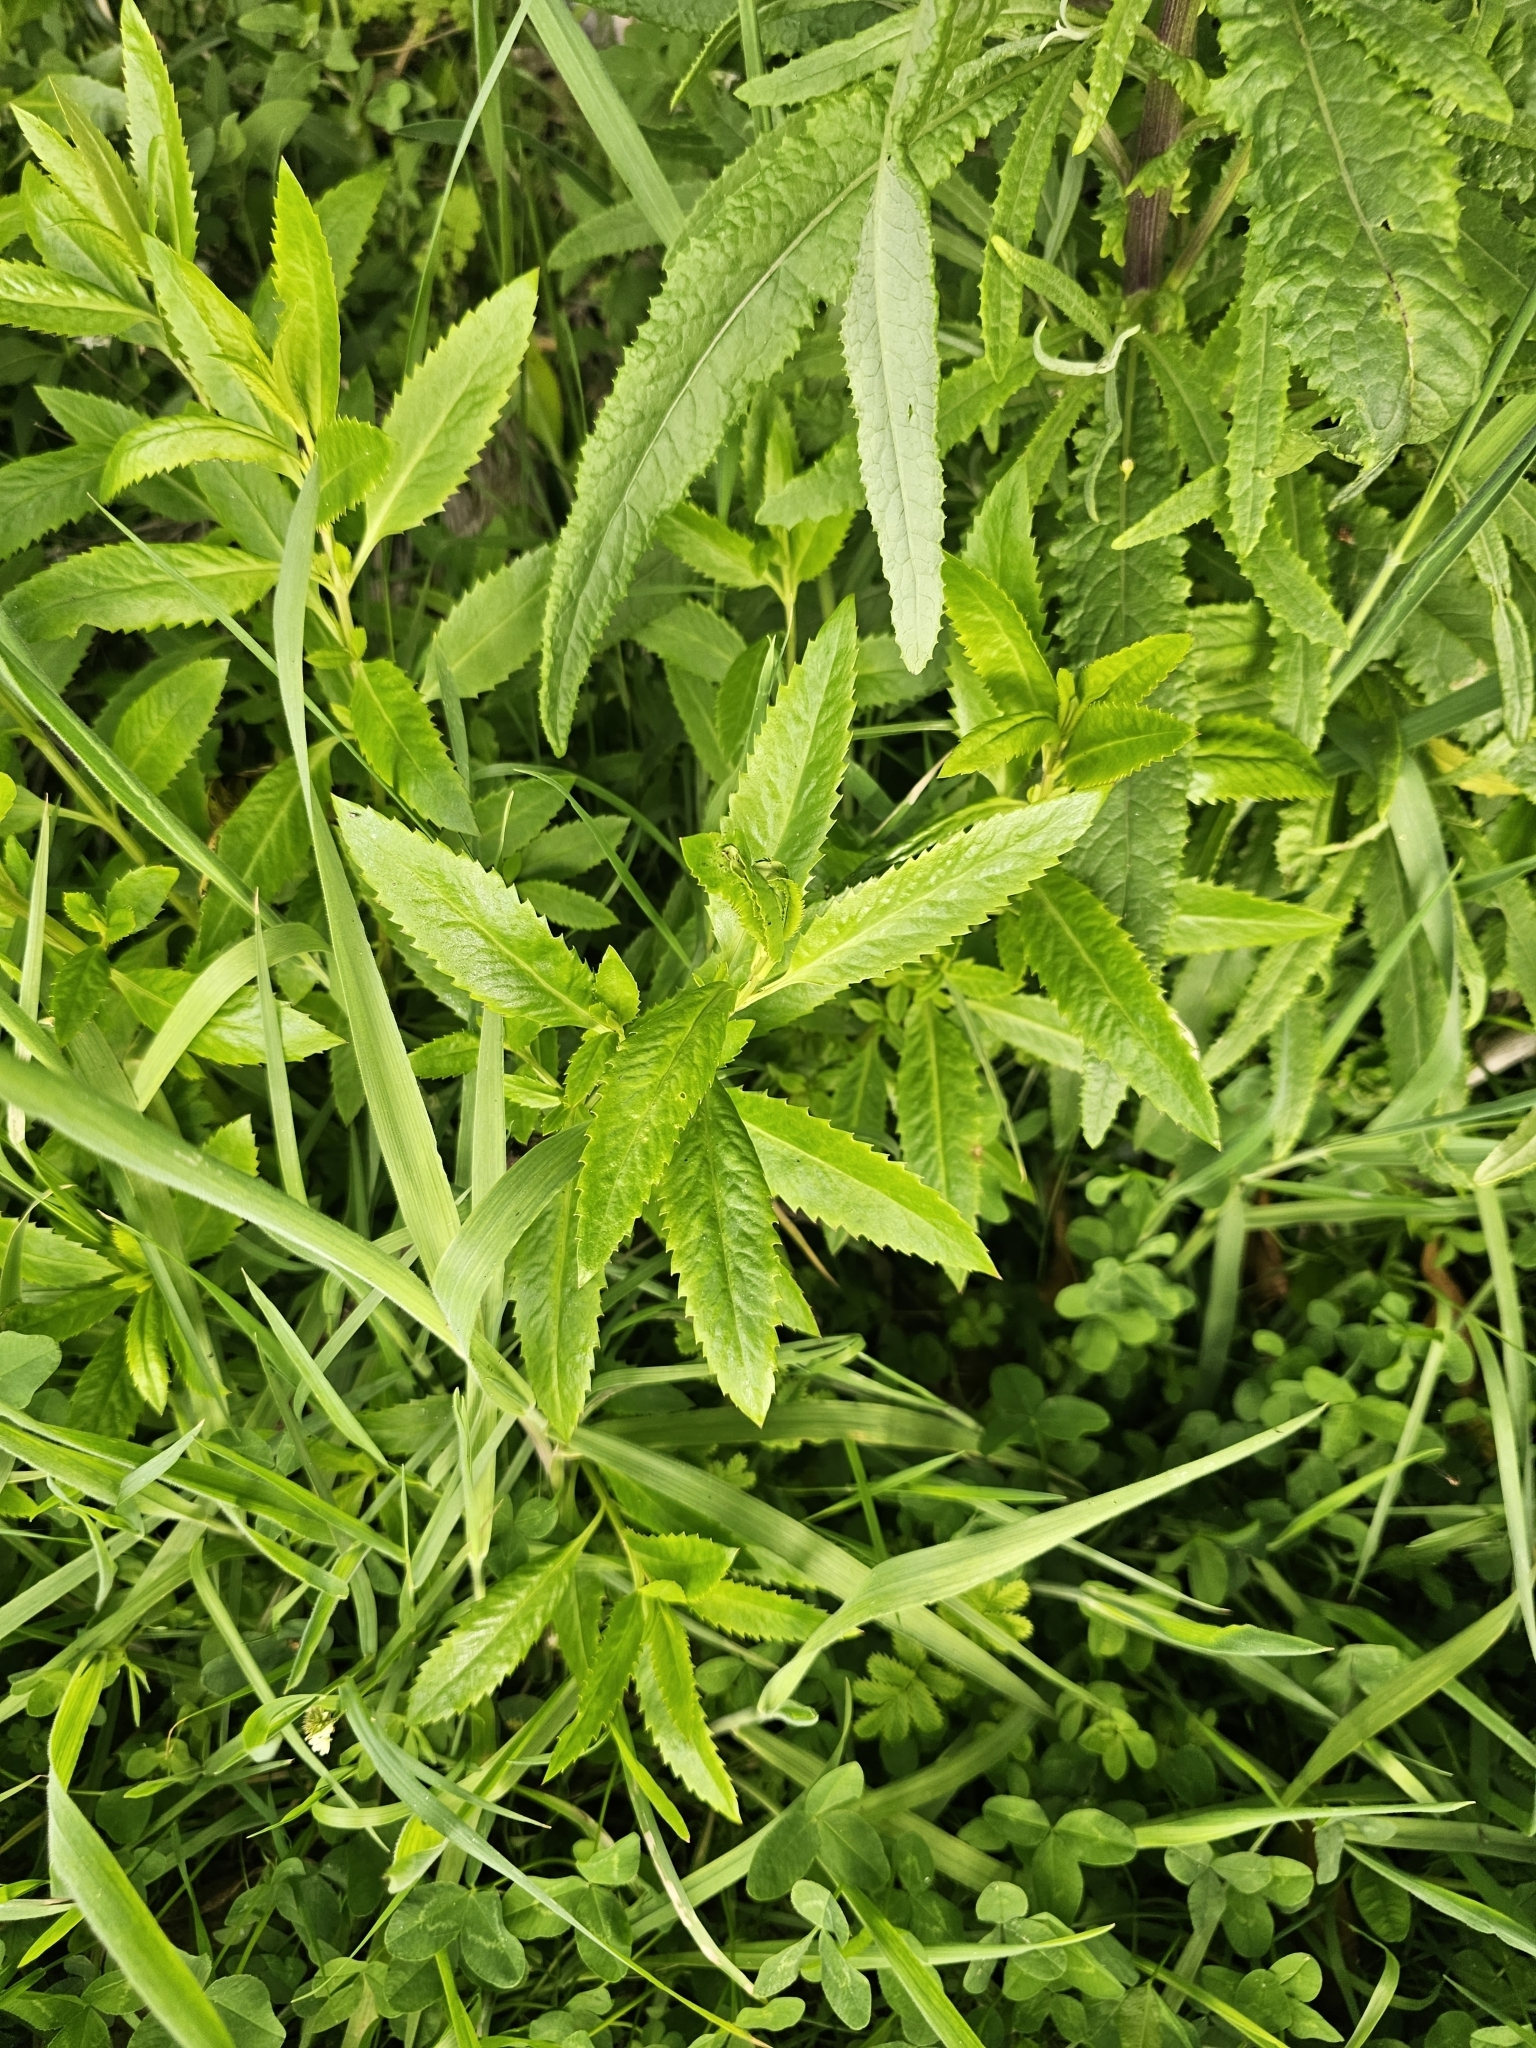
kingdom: Plantae
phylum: Tracheophyta
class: Magnoliopsida
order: Saxifragales
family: Haloragaceae
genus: Haloragis
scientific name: Haloragis erecta
